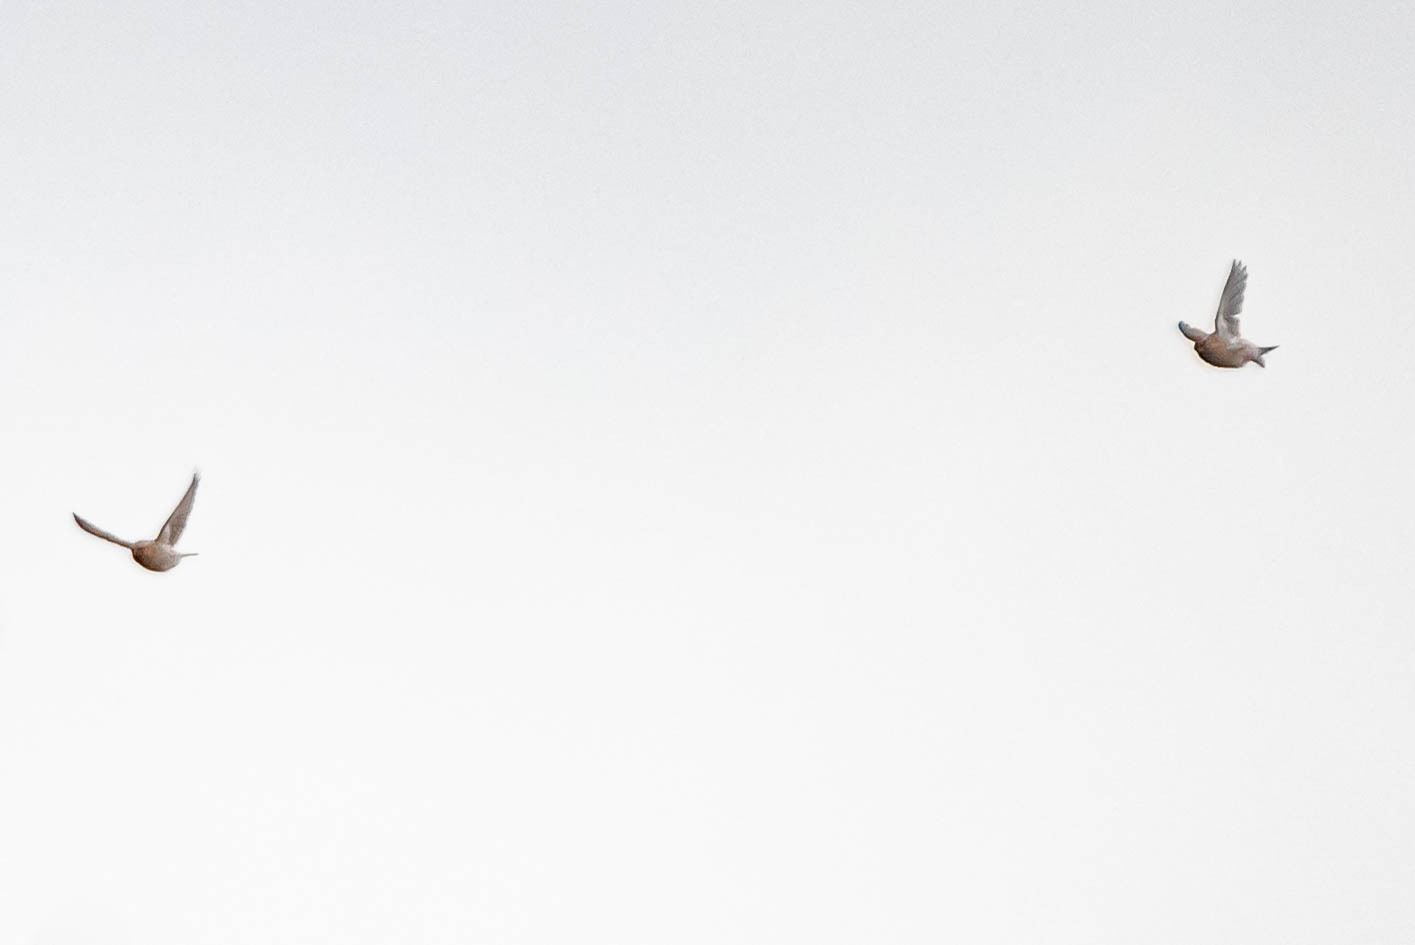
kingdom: Animalia
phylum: Chordata
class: Aves
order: Passeriformes
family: Fringillidae
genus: Acanthis
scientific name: Acanthis flammea
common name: Common redpoll
